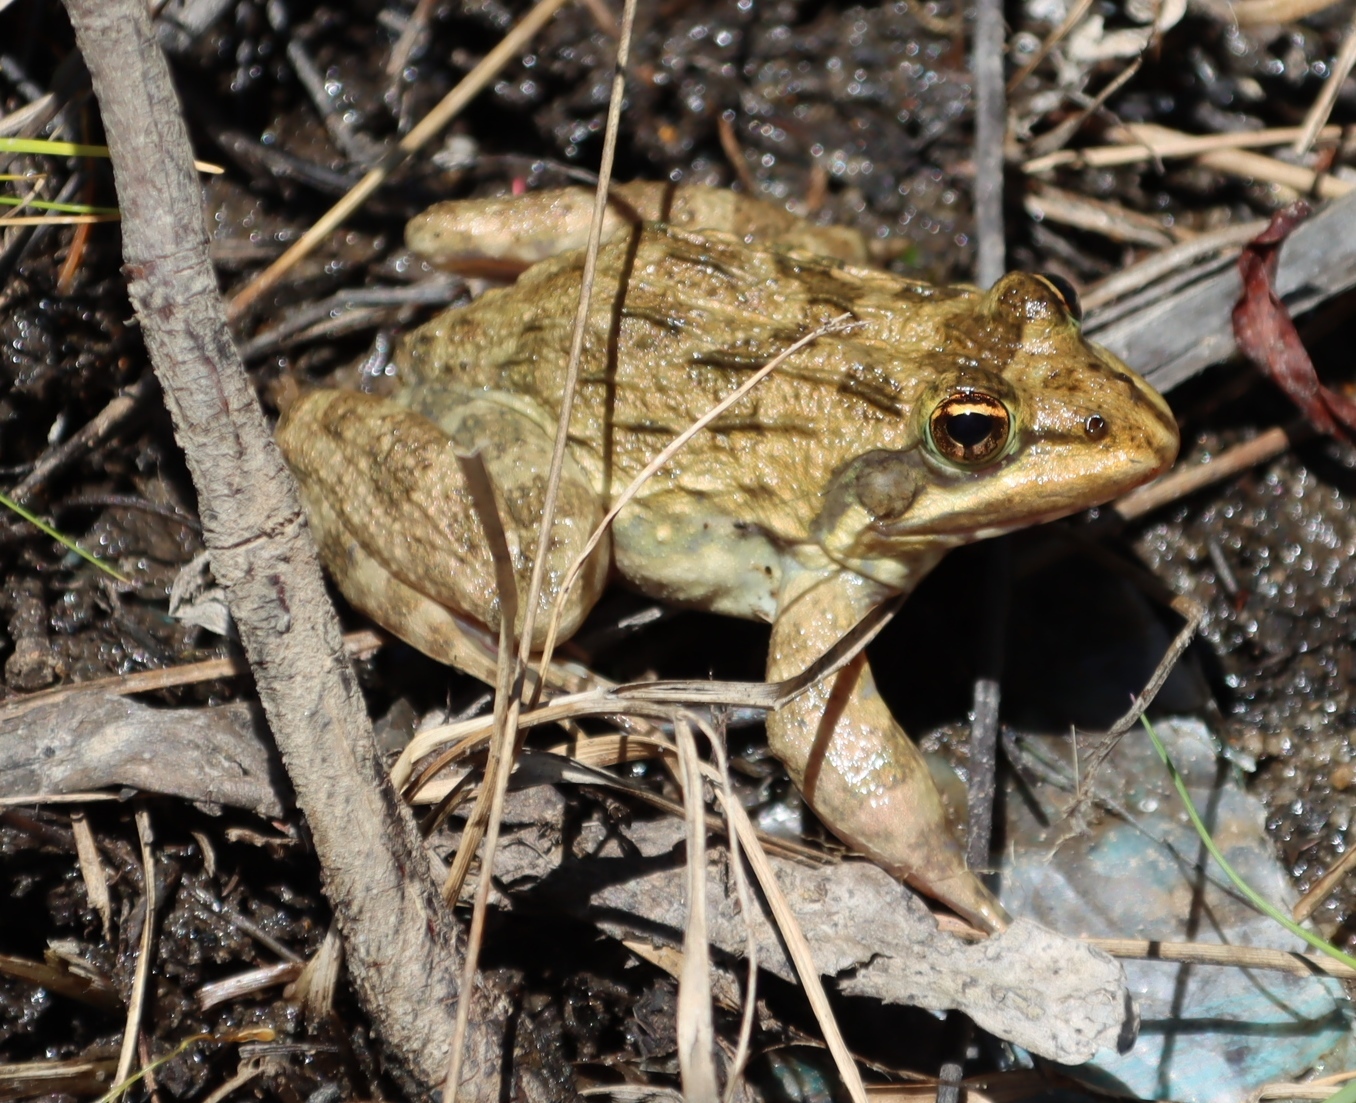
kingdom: Animalia
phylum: Chordata
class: Amphibia
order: Anura
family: Pyxicephalidae
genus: Amietia
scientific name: Amietia fuscigula
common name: Cape rana
